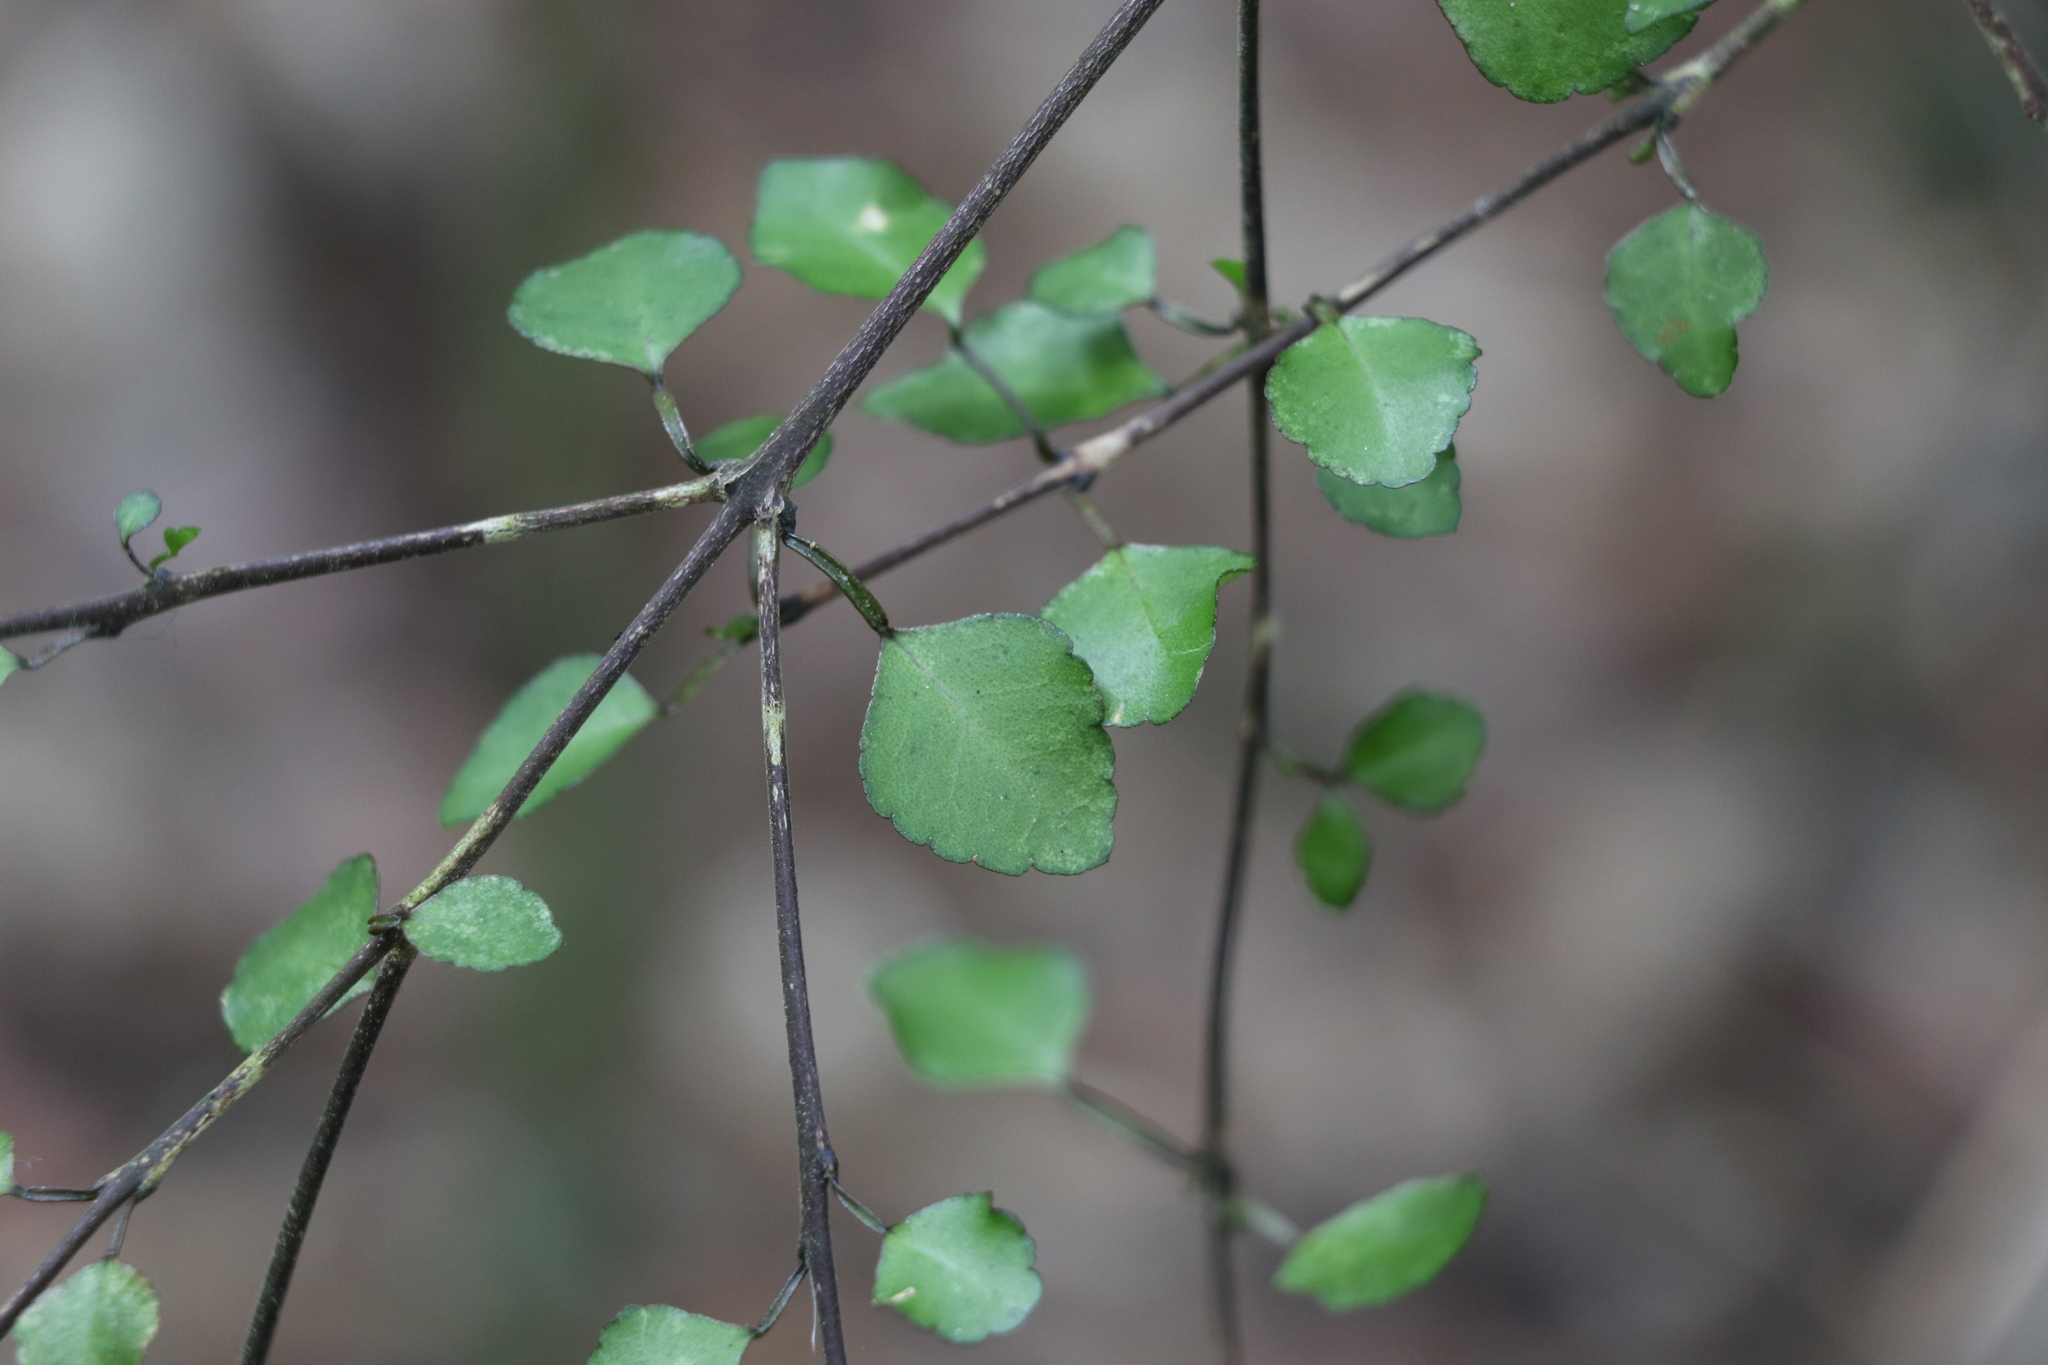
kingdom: Plantae
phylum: Tracheophyta
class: Magnoliopsida
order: Sapindales
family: Rutaceae
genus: Melicope
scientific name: Melicope simplex
